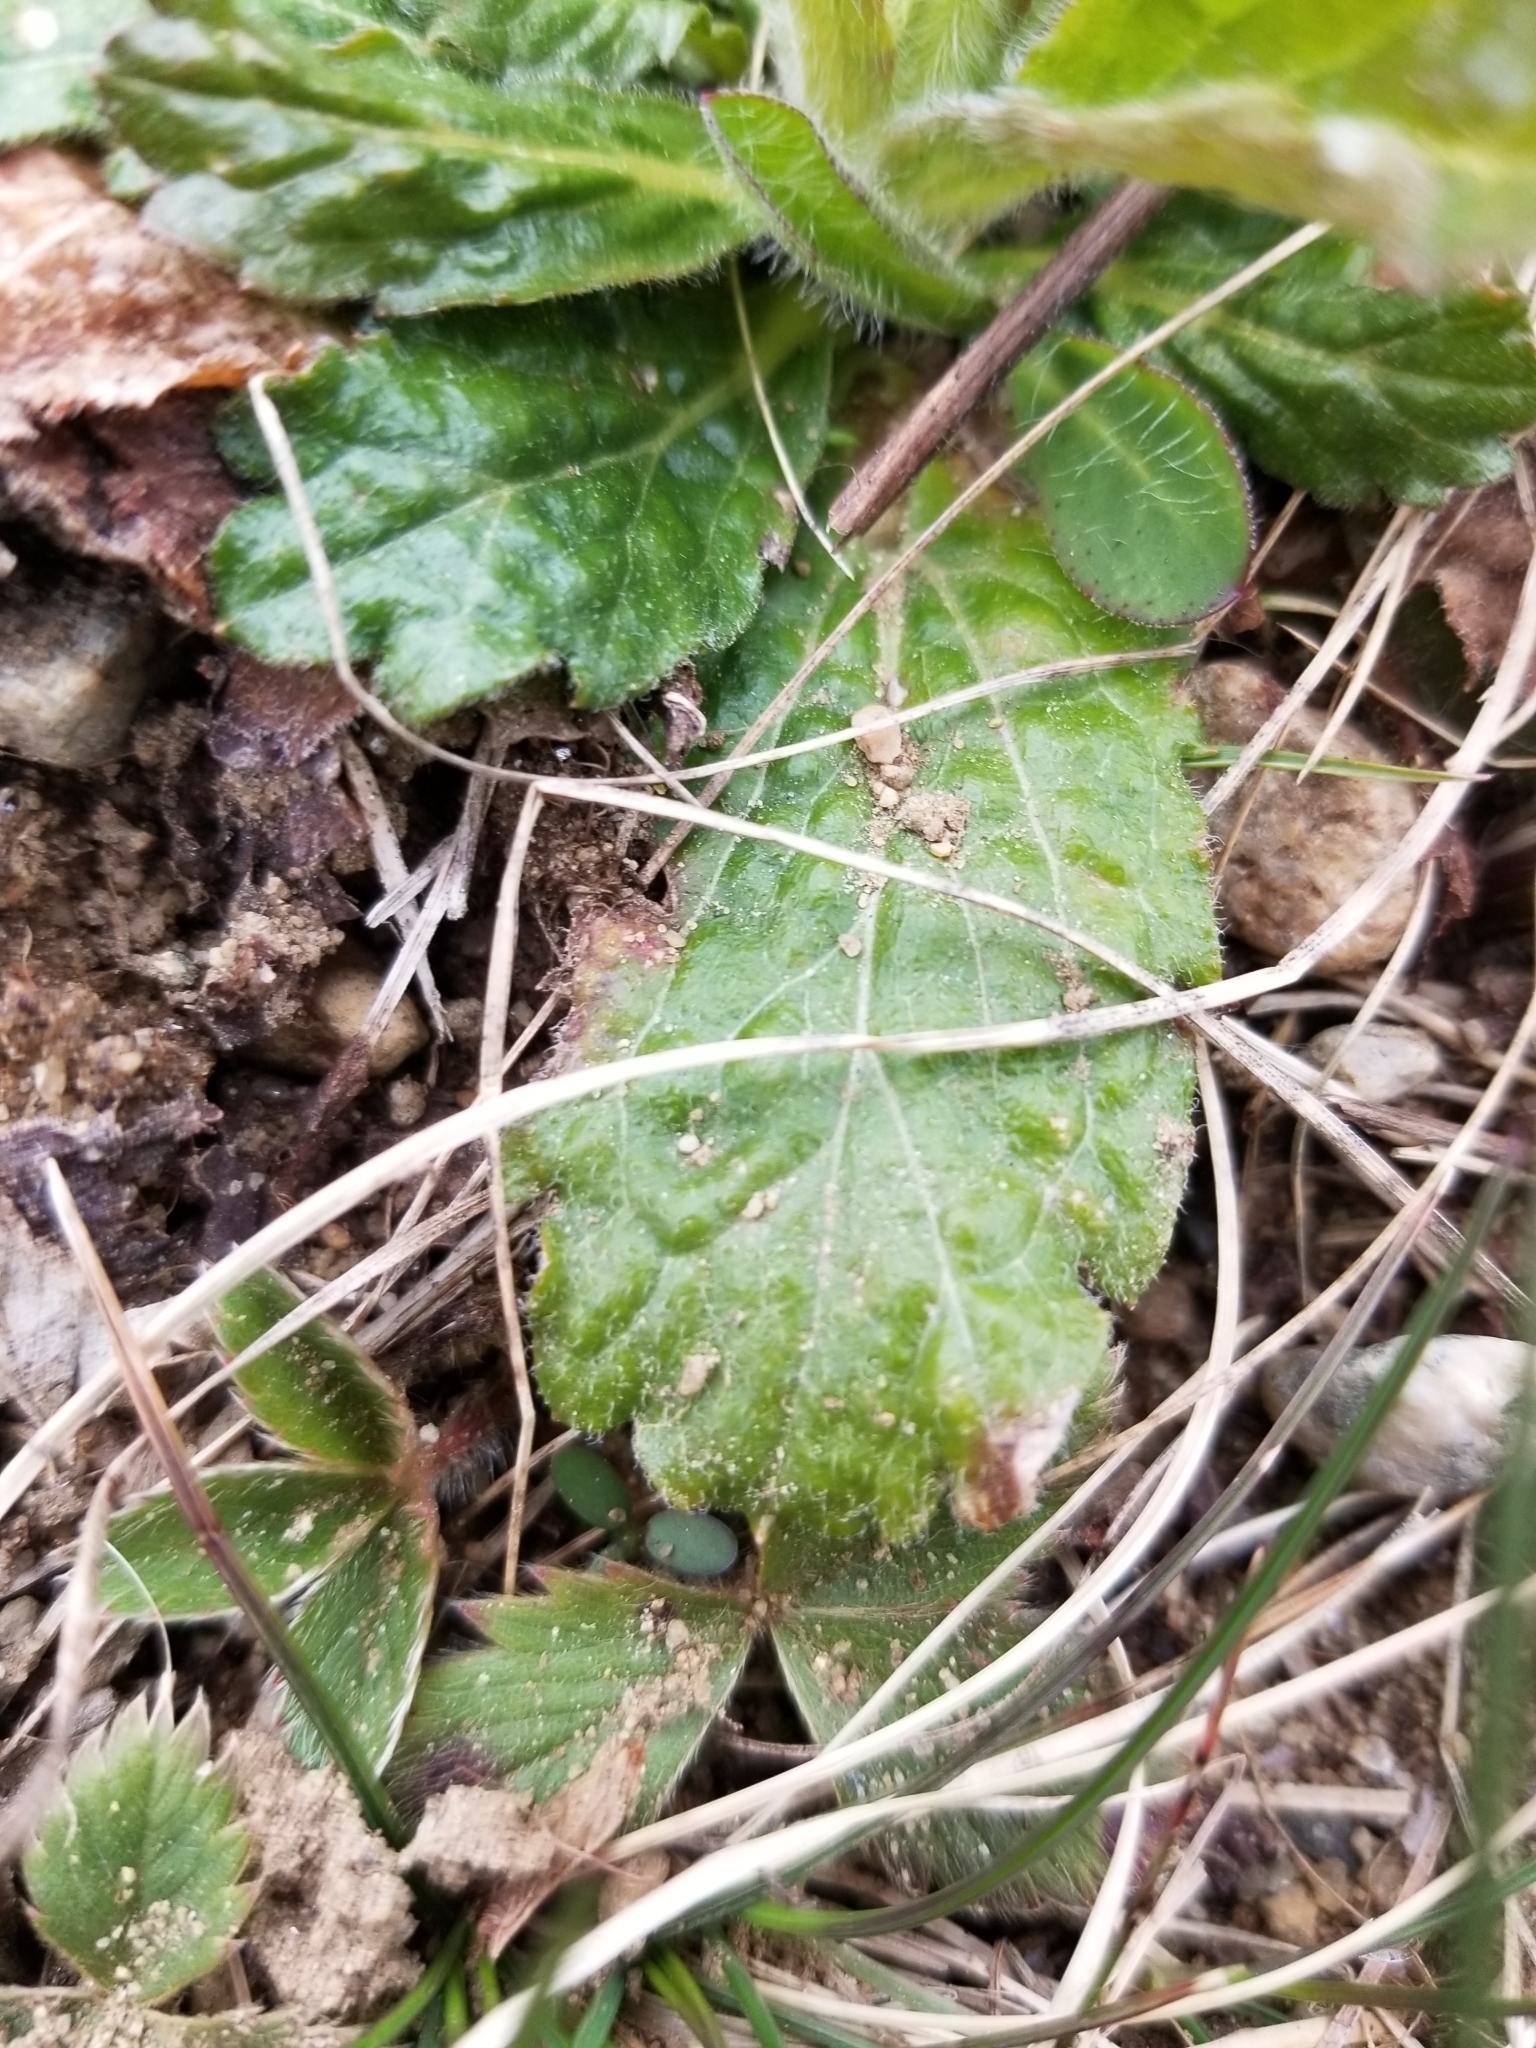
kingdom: Plantae
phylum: Tracheophyta
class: Magnoliopsida
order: Asterales
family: Asteraceae
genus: Erigeron
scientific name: Erigeron pulchellus
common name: Hairy fleabane
